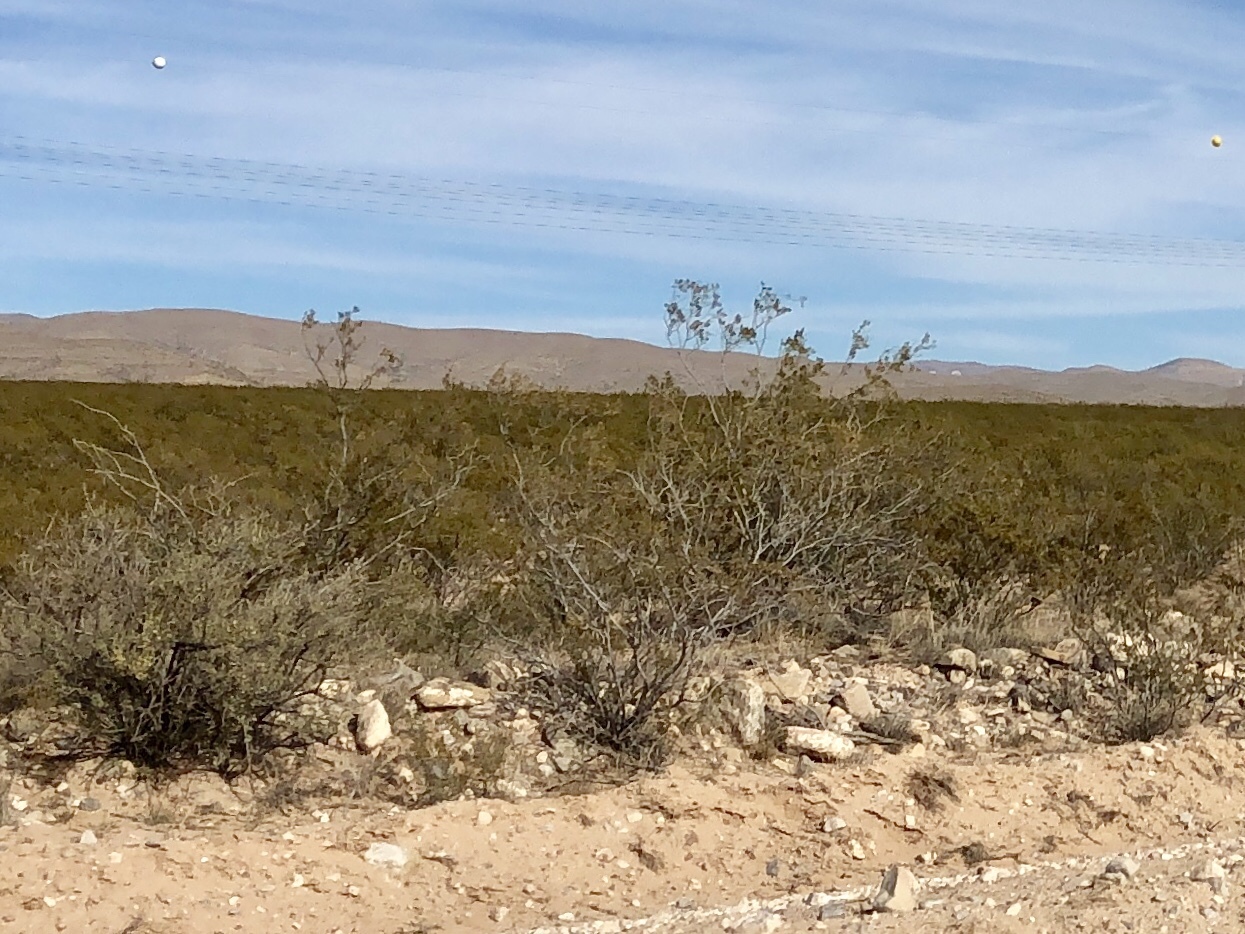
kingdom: Plantae
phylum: Tracheophyta
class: Magnoliopsida
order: Zygophyllales
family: Zygophyllaceae
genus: Larrea
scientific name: Larrea tridentata
